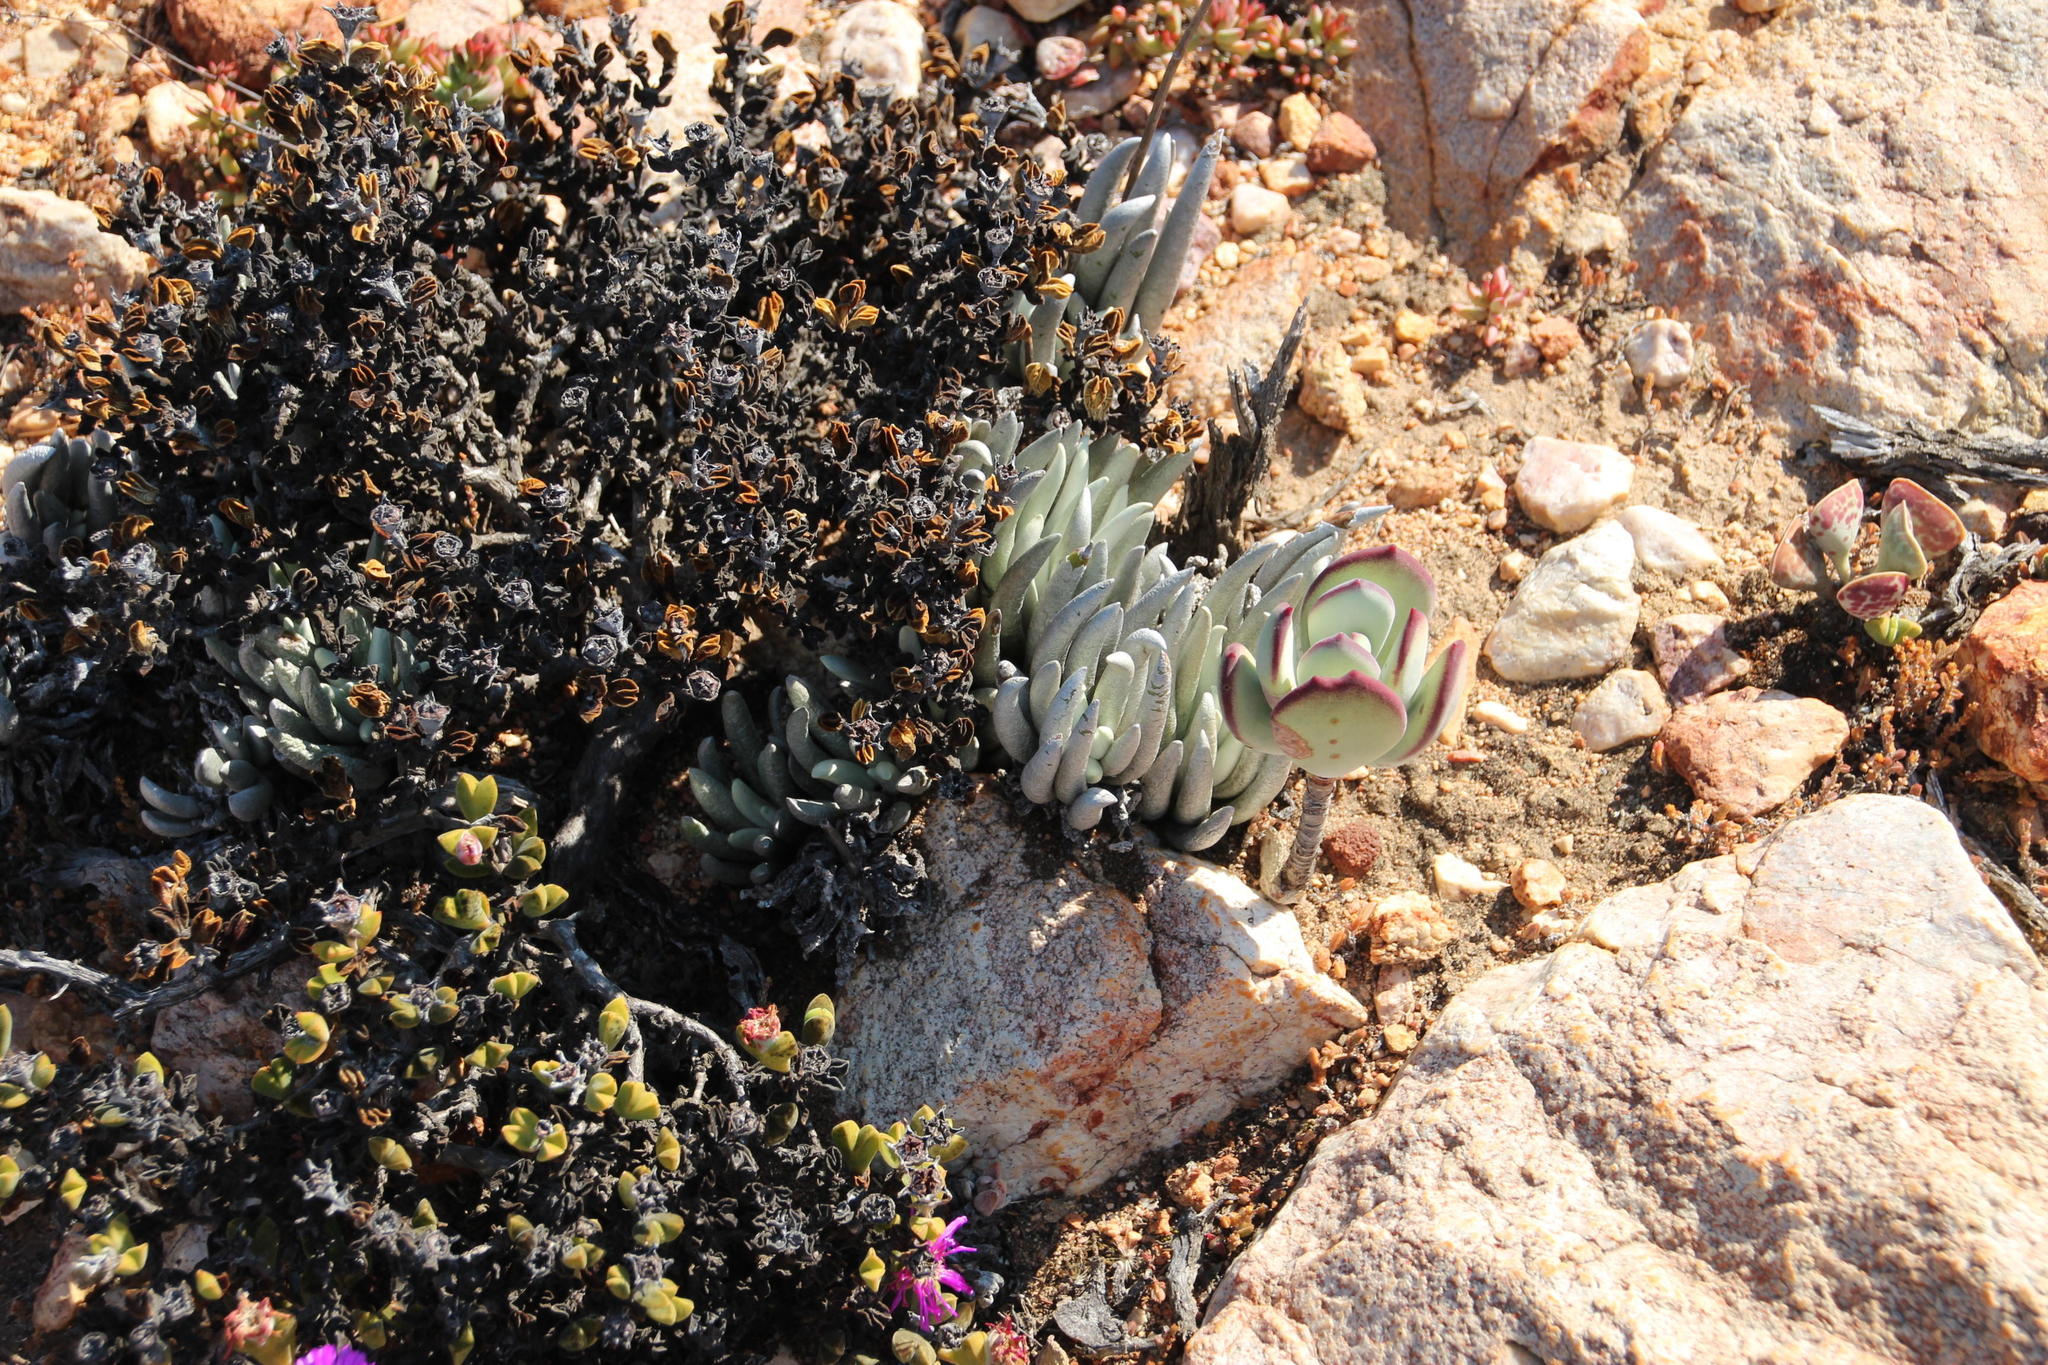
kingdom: Plantae
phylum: Tracheophyta
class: Magnoliopsida
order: Asterales
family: Asteraceae
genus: Caputia
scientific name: Caputia scaposa
